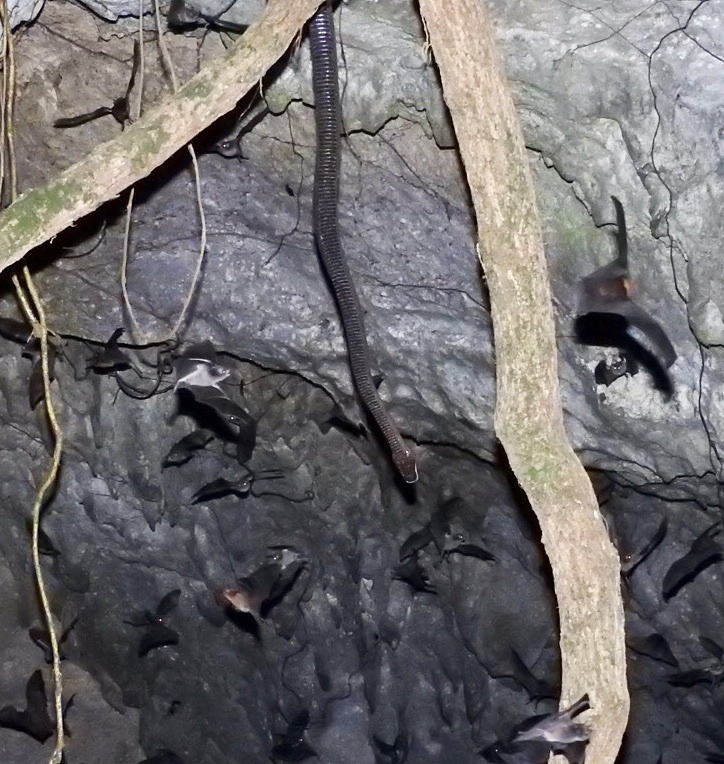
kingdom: Animalia
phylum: Chordata
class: Squamata
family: Boidae
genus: Chilabothrus
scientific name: Chilabothrus inornatus
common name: Puerto rican boa
